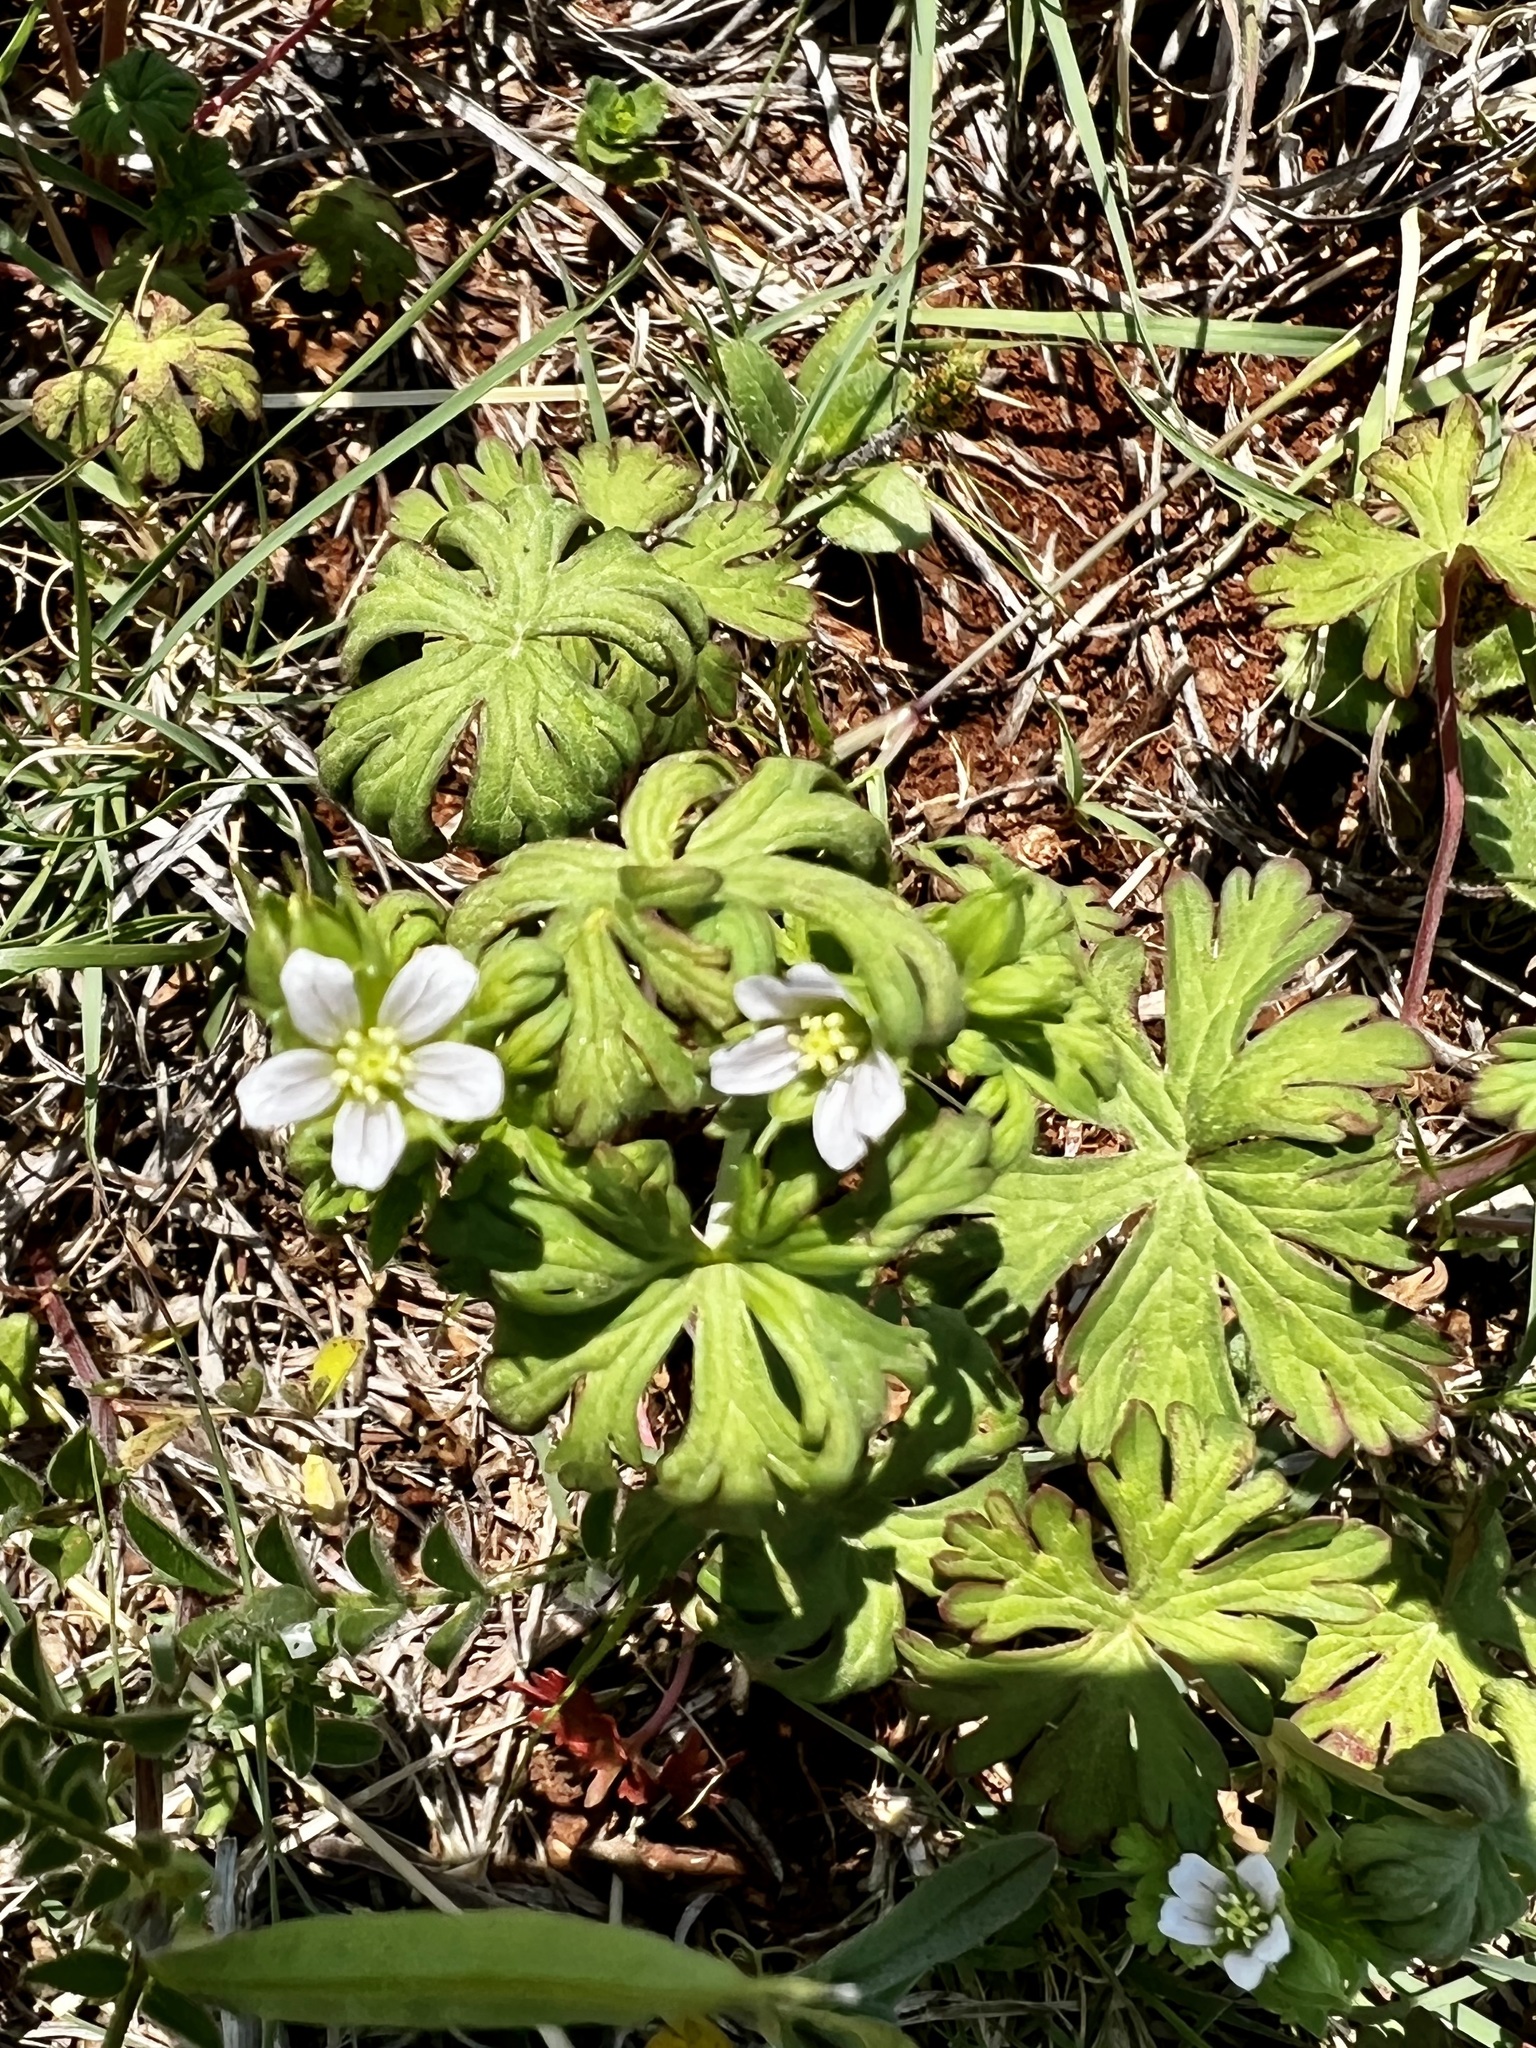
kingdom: Plantae
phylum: Tracheophyta
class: Magnoliopsida
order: Geraniales
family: Geraniaceae
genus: Geranium
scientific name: Geranium carolinianum
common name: Carolina crane's-bill
